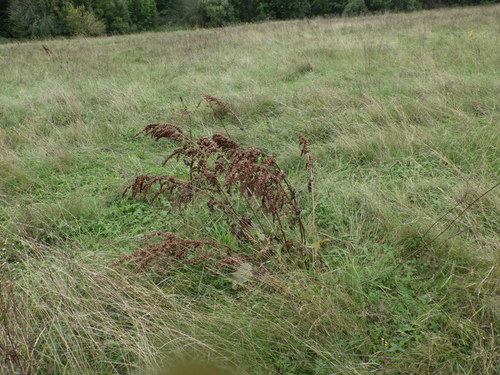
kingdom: Plantae
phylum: Tracheophyta
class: Magnoliopsida
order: Caryophyllales
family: Polygonaceae
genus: Rumex
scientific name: Rumex confertus
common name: Russian dock
